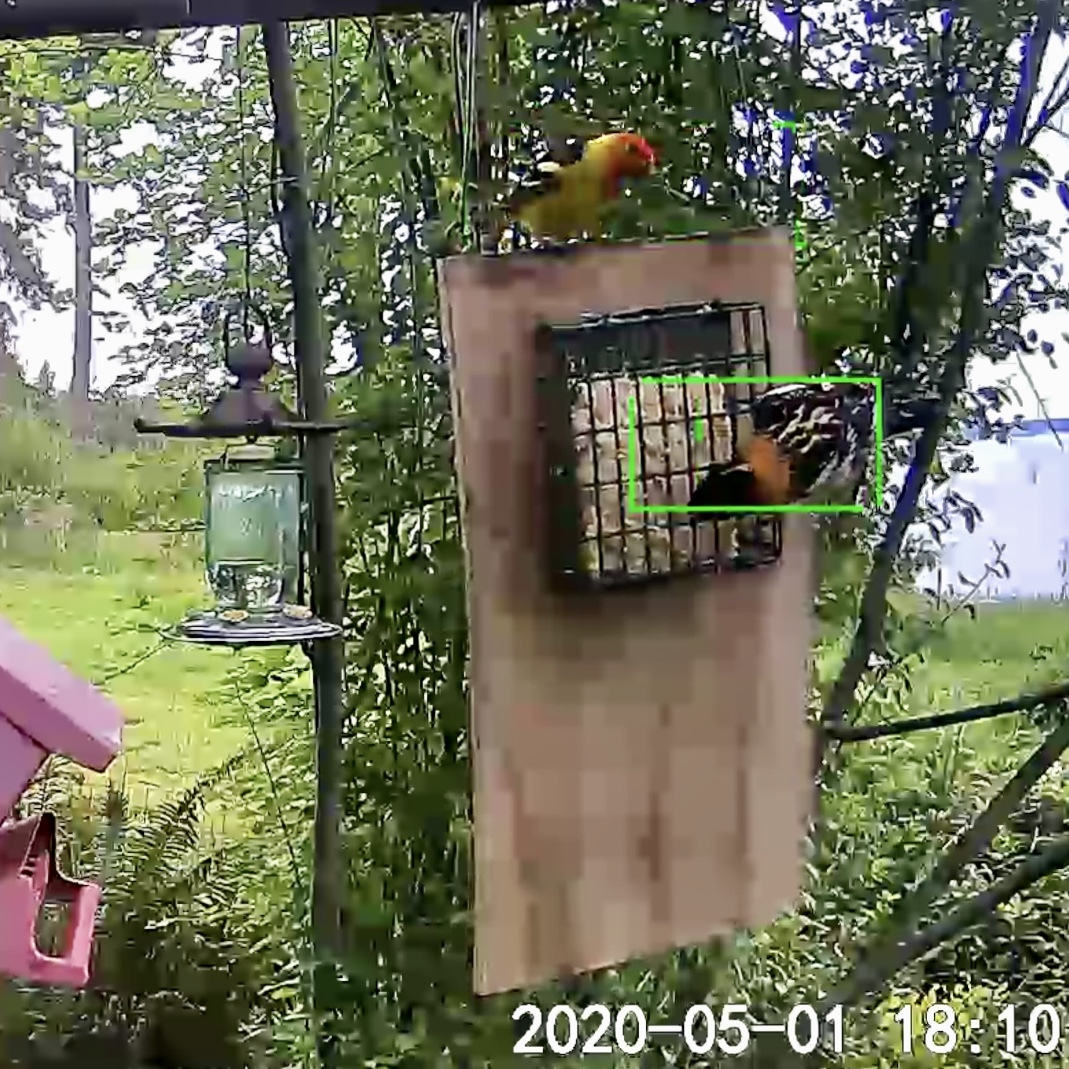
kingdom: Animalia
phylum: Chordata
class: Aves
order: Passeriformes
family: Cardinalidae
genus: Piranga
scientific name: Piranga ludoviciana
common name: Western tanager
